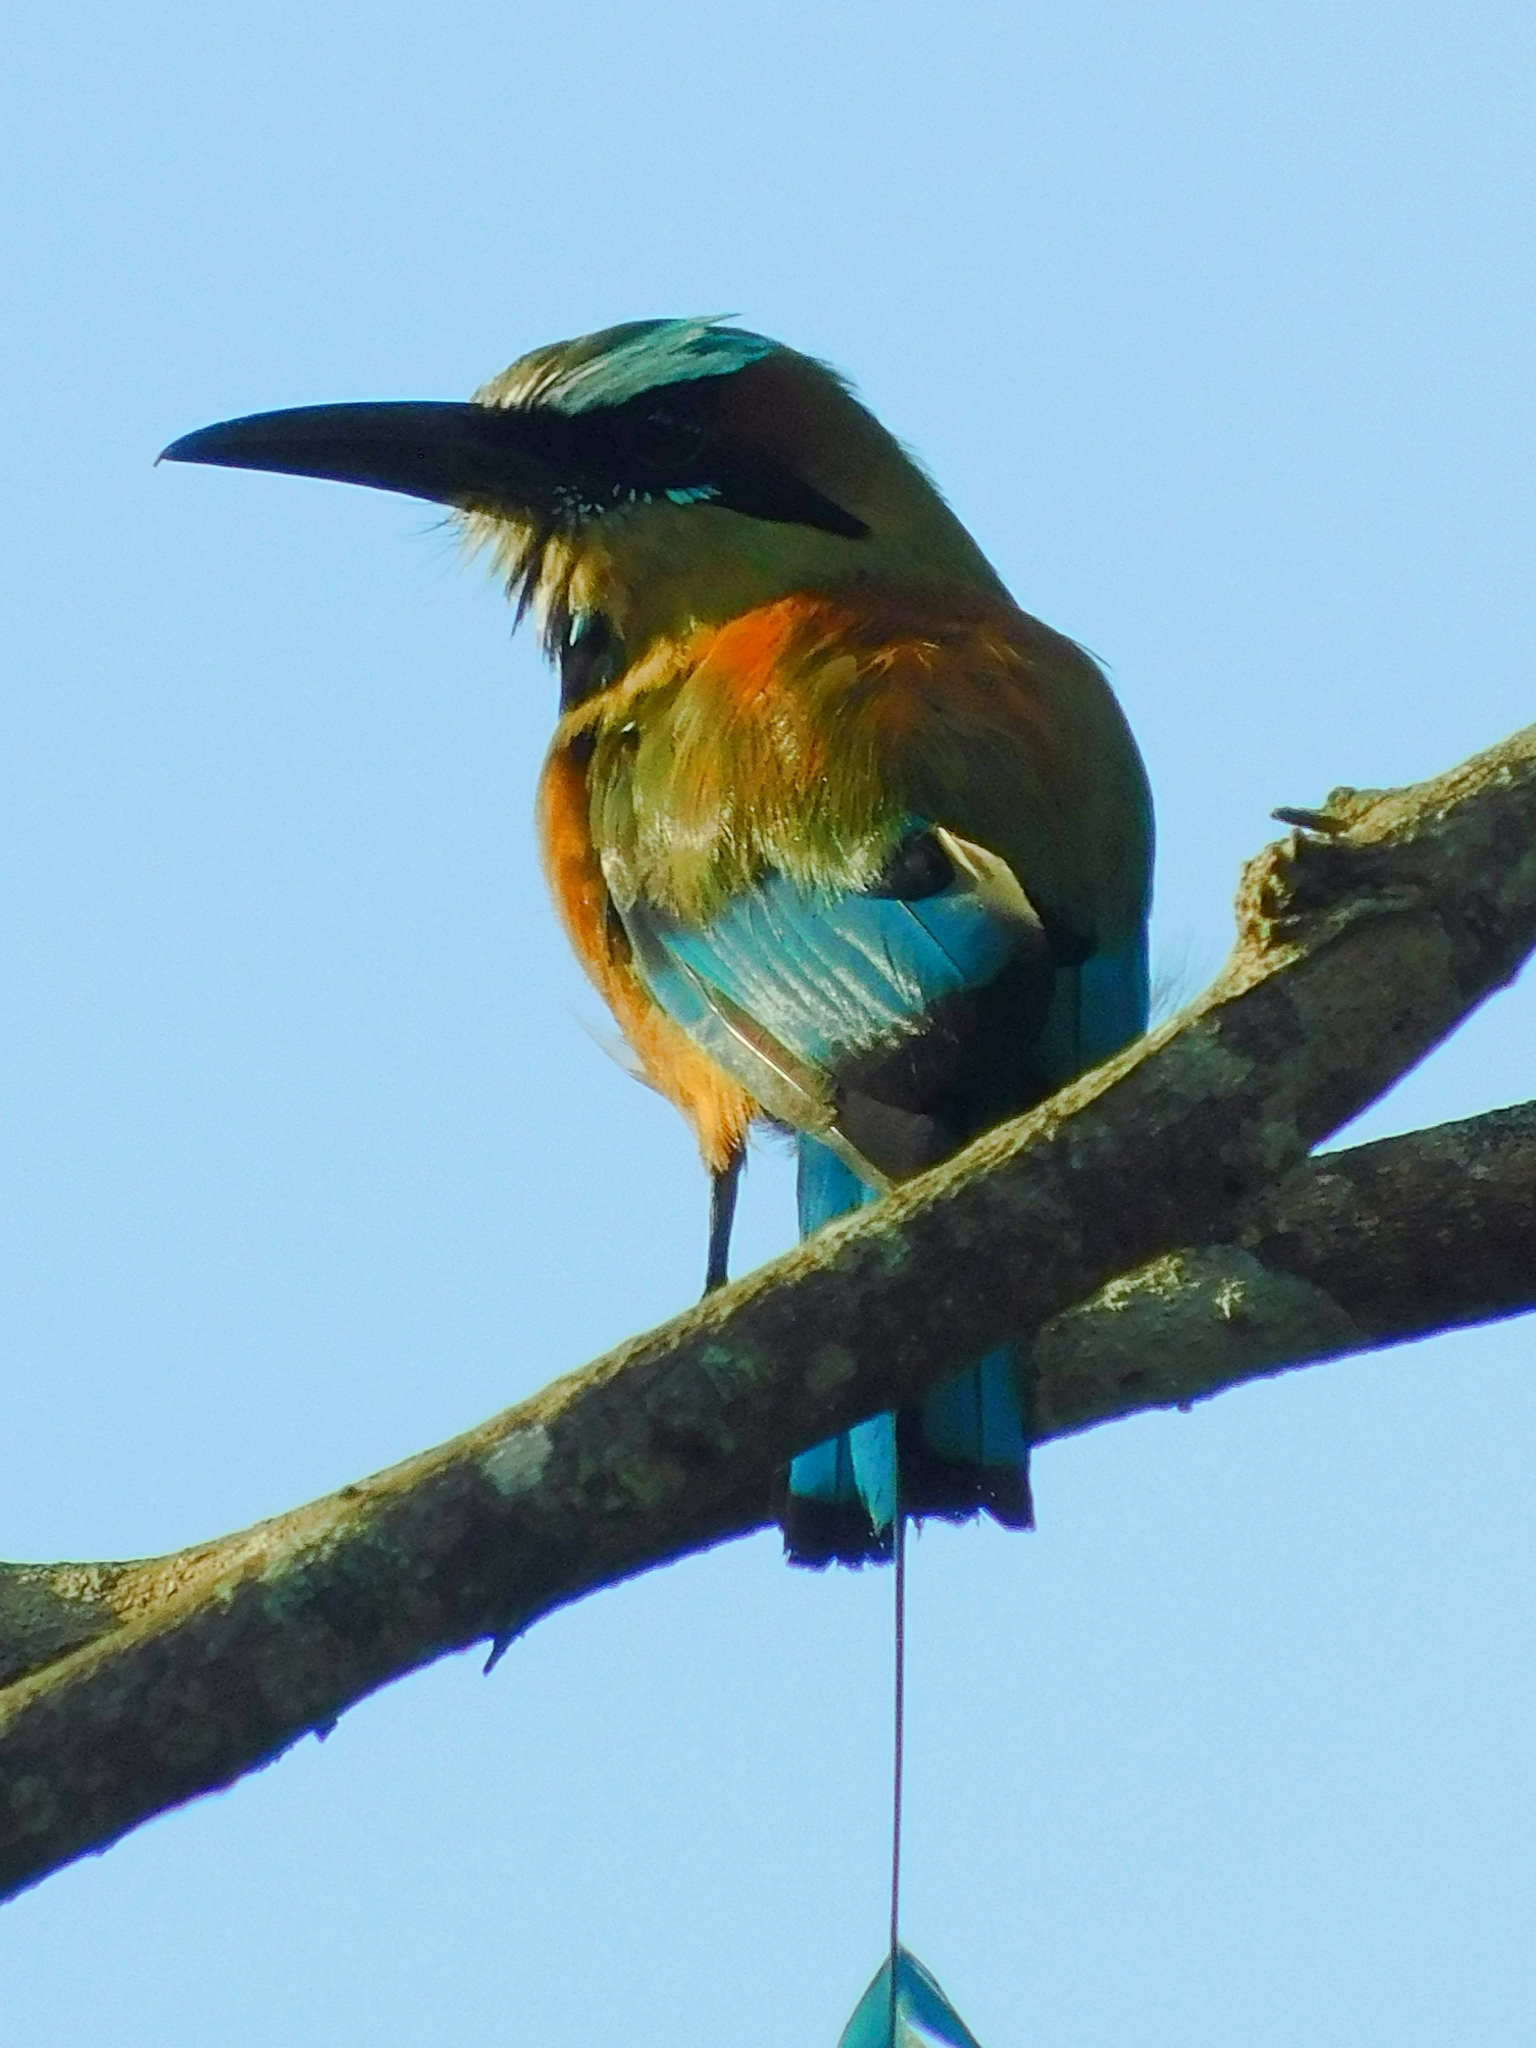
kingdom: Animalia
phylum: Chordata
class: Aves
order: Coraciiformes
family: Momotidae
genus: Eumomota
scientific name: Eumomota superciliosa
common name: Turquoise-browed motmot
